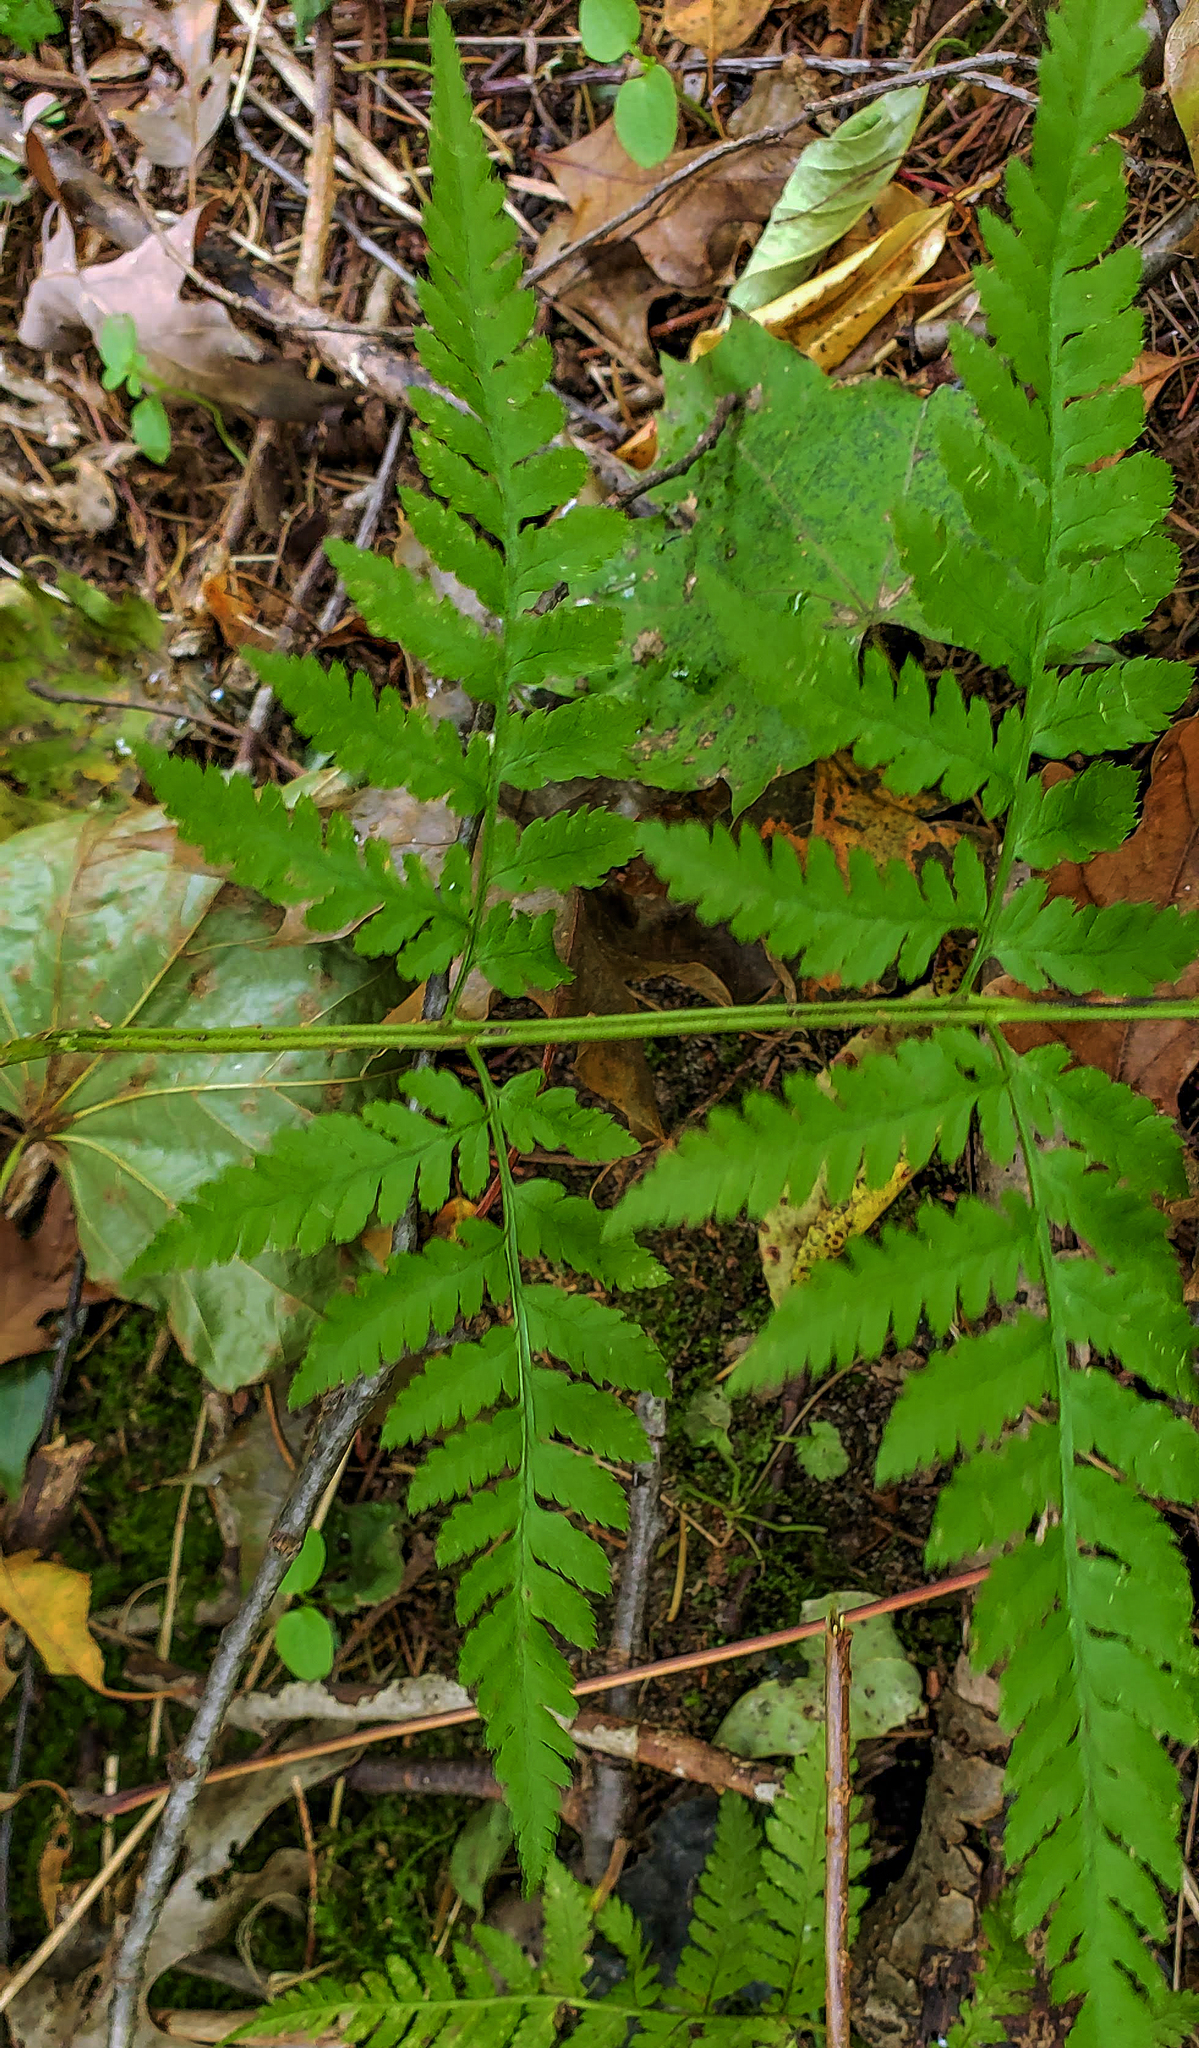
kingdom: Plantae
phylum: Tracheophyta
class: Polypodiopsida
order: Polypodiales
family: Dryopteridaceae
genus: Dryopteris
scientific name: Dryopteris carthusiana
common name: Narrow buckler-fern
